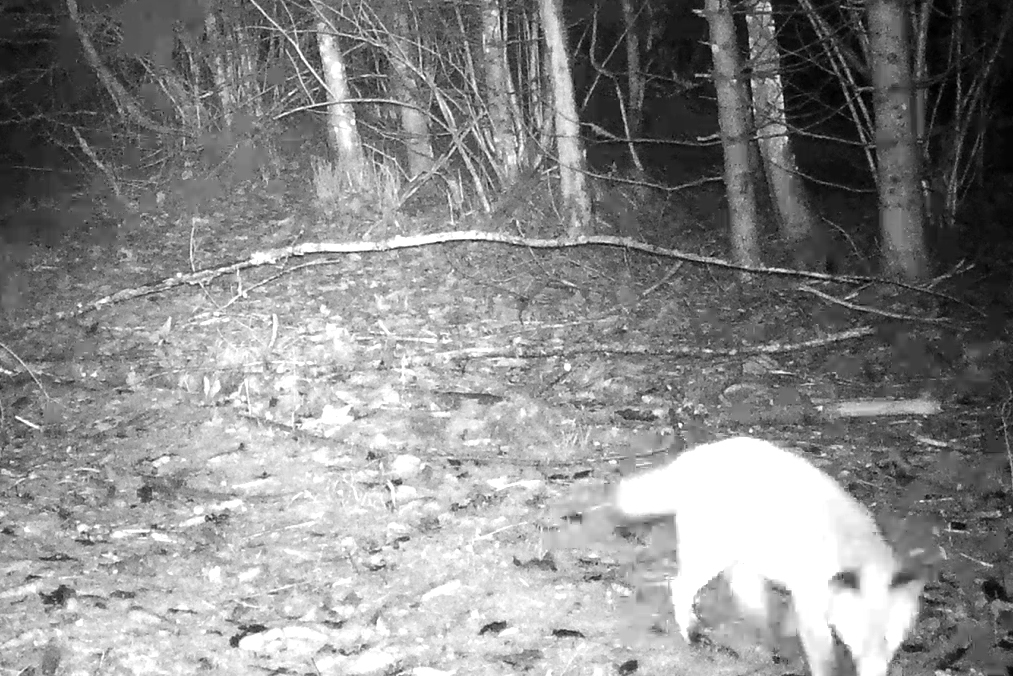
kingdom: Animalia
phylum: Chordata
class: Mammalia
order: Carnivora
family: Canidae
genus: Vulpes
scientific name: Vulpes vulpes
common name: Red fox
